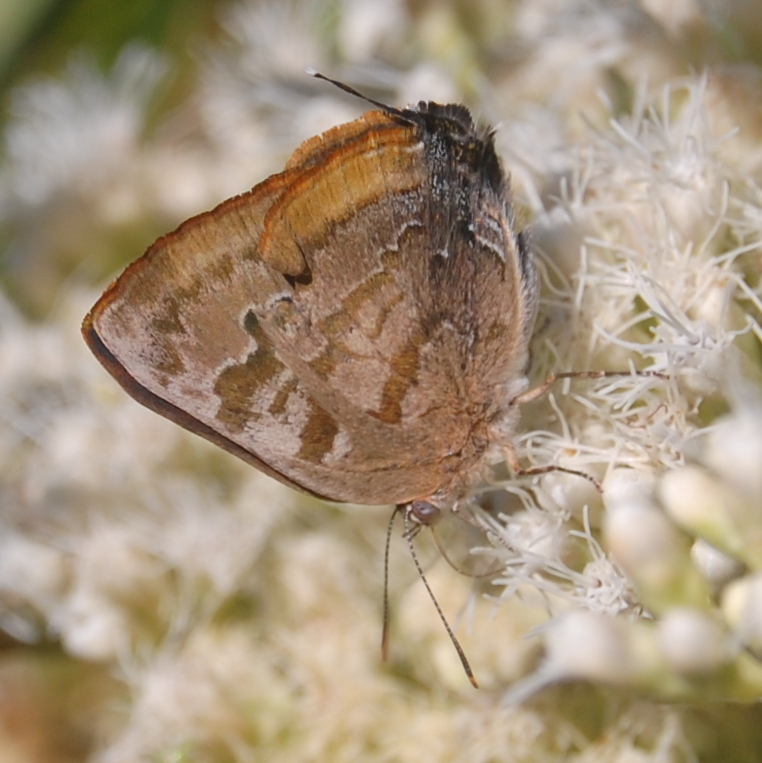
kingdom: Animalia
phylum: Arthropoda
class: Insecta
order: Lepidoptera
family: Lycaenidae
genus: Rekoa
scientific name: Rekoa palegon
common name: Gold-bordered hairstreak
